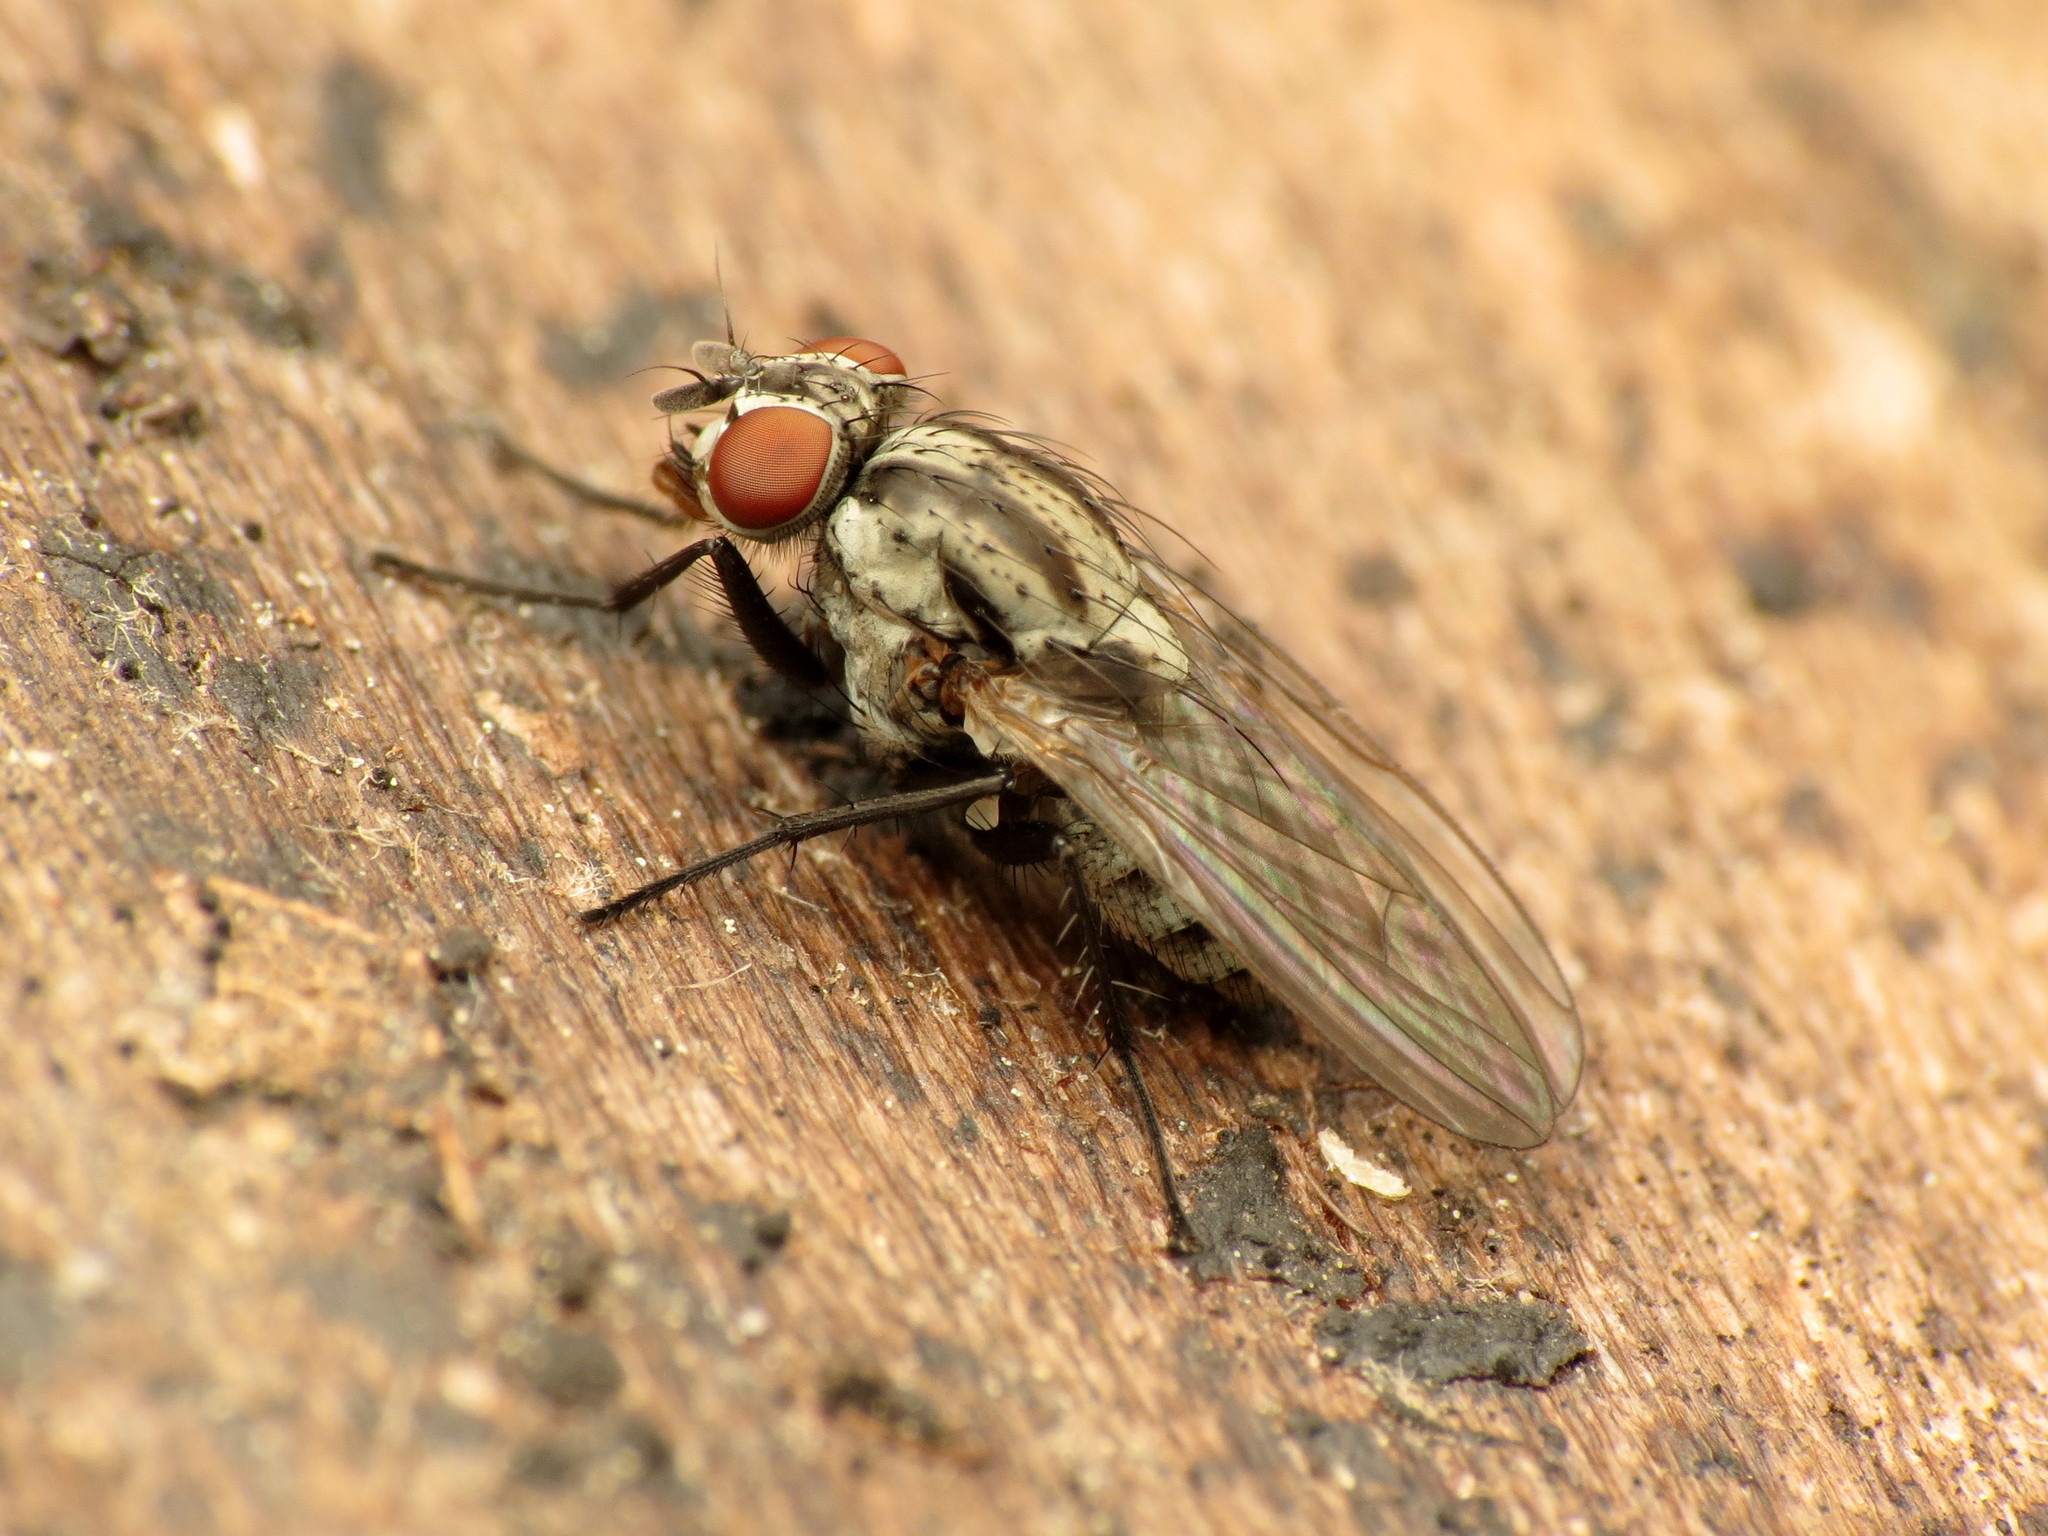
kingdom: Animalia
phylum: Arthropoda
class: Insecta
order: Diptera
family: Anthomyiidae
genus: Anthomyia
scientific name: Anthomyia oculifera
